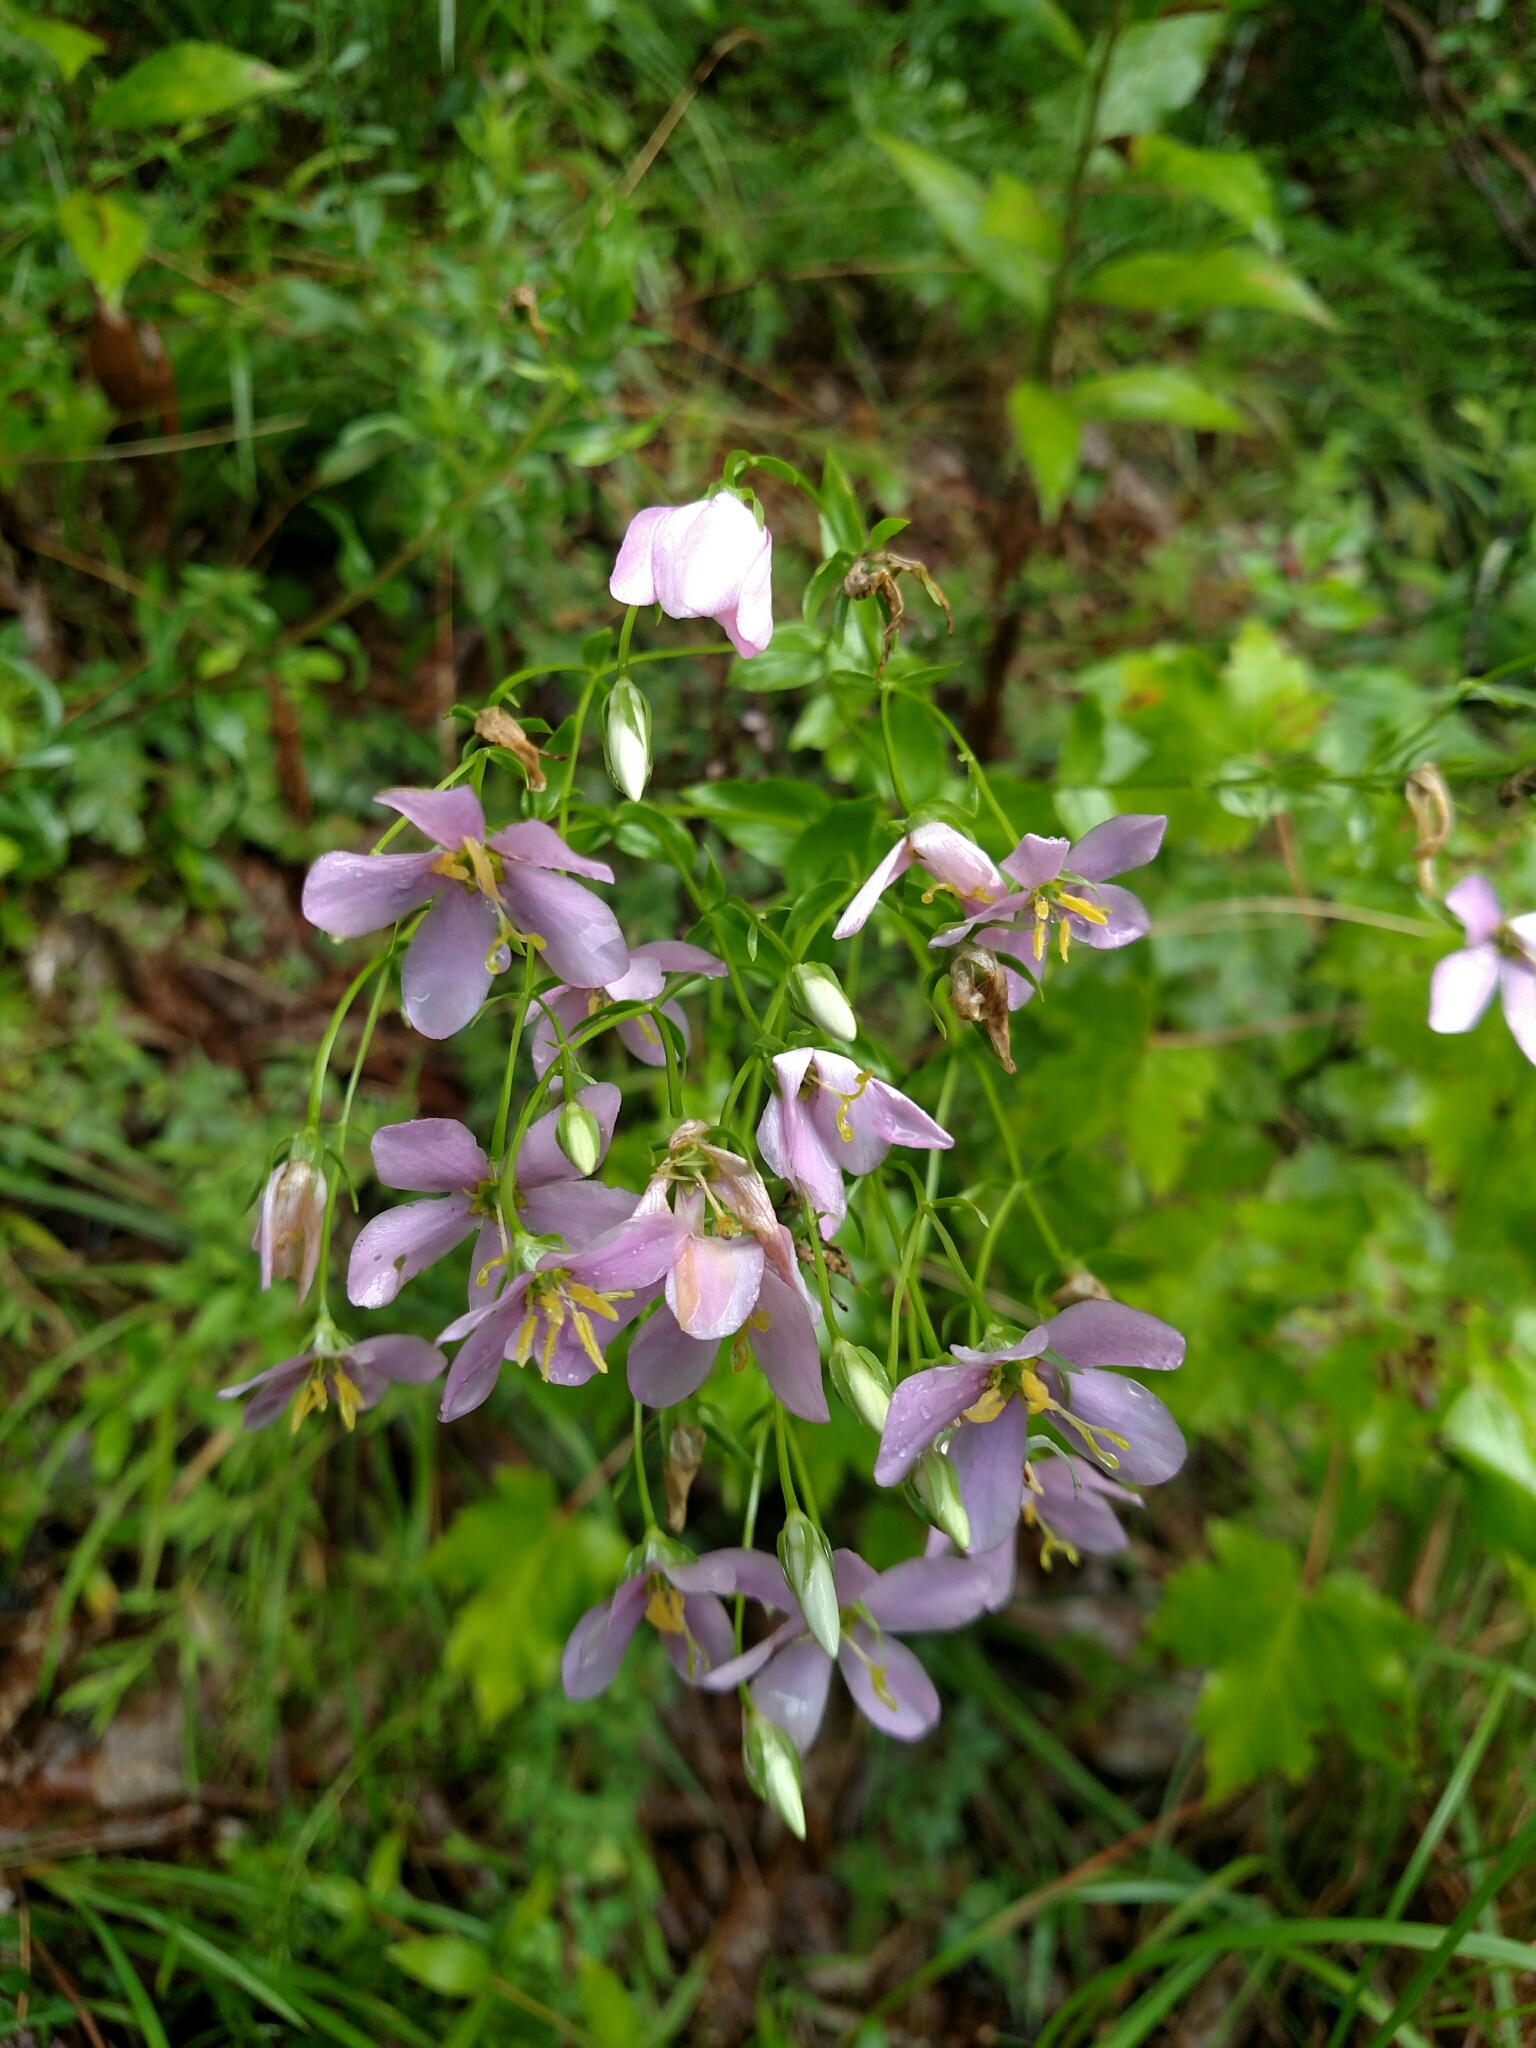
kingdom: Plantae
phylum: Tracheophyta
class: Magnoliopsida
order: Gentianales
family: Gentianaceae
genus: Sabatia
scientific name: Sabatia angularis
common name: Rose-pink
